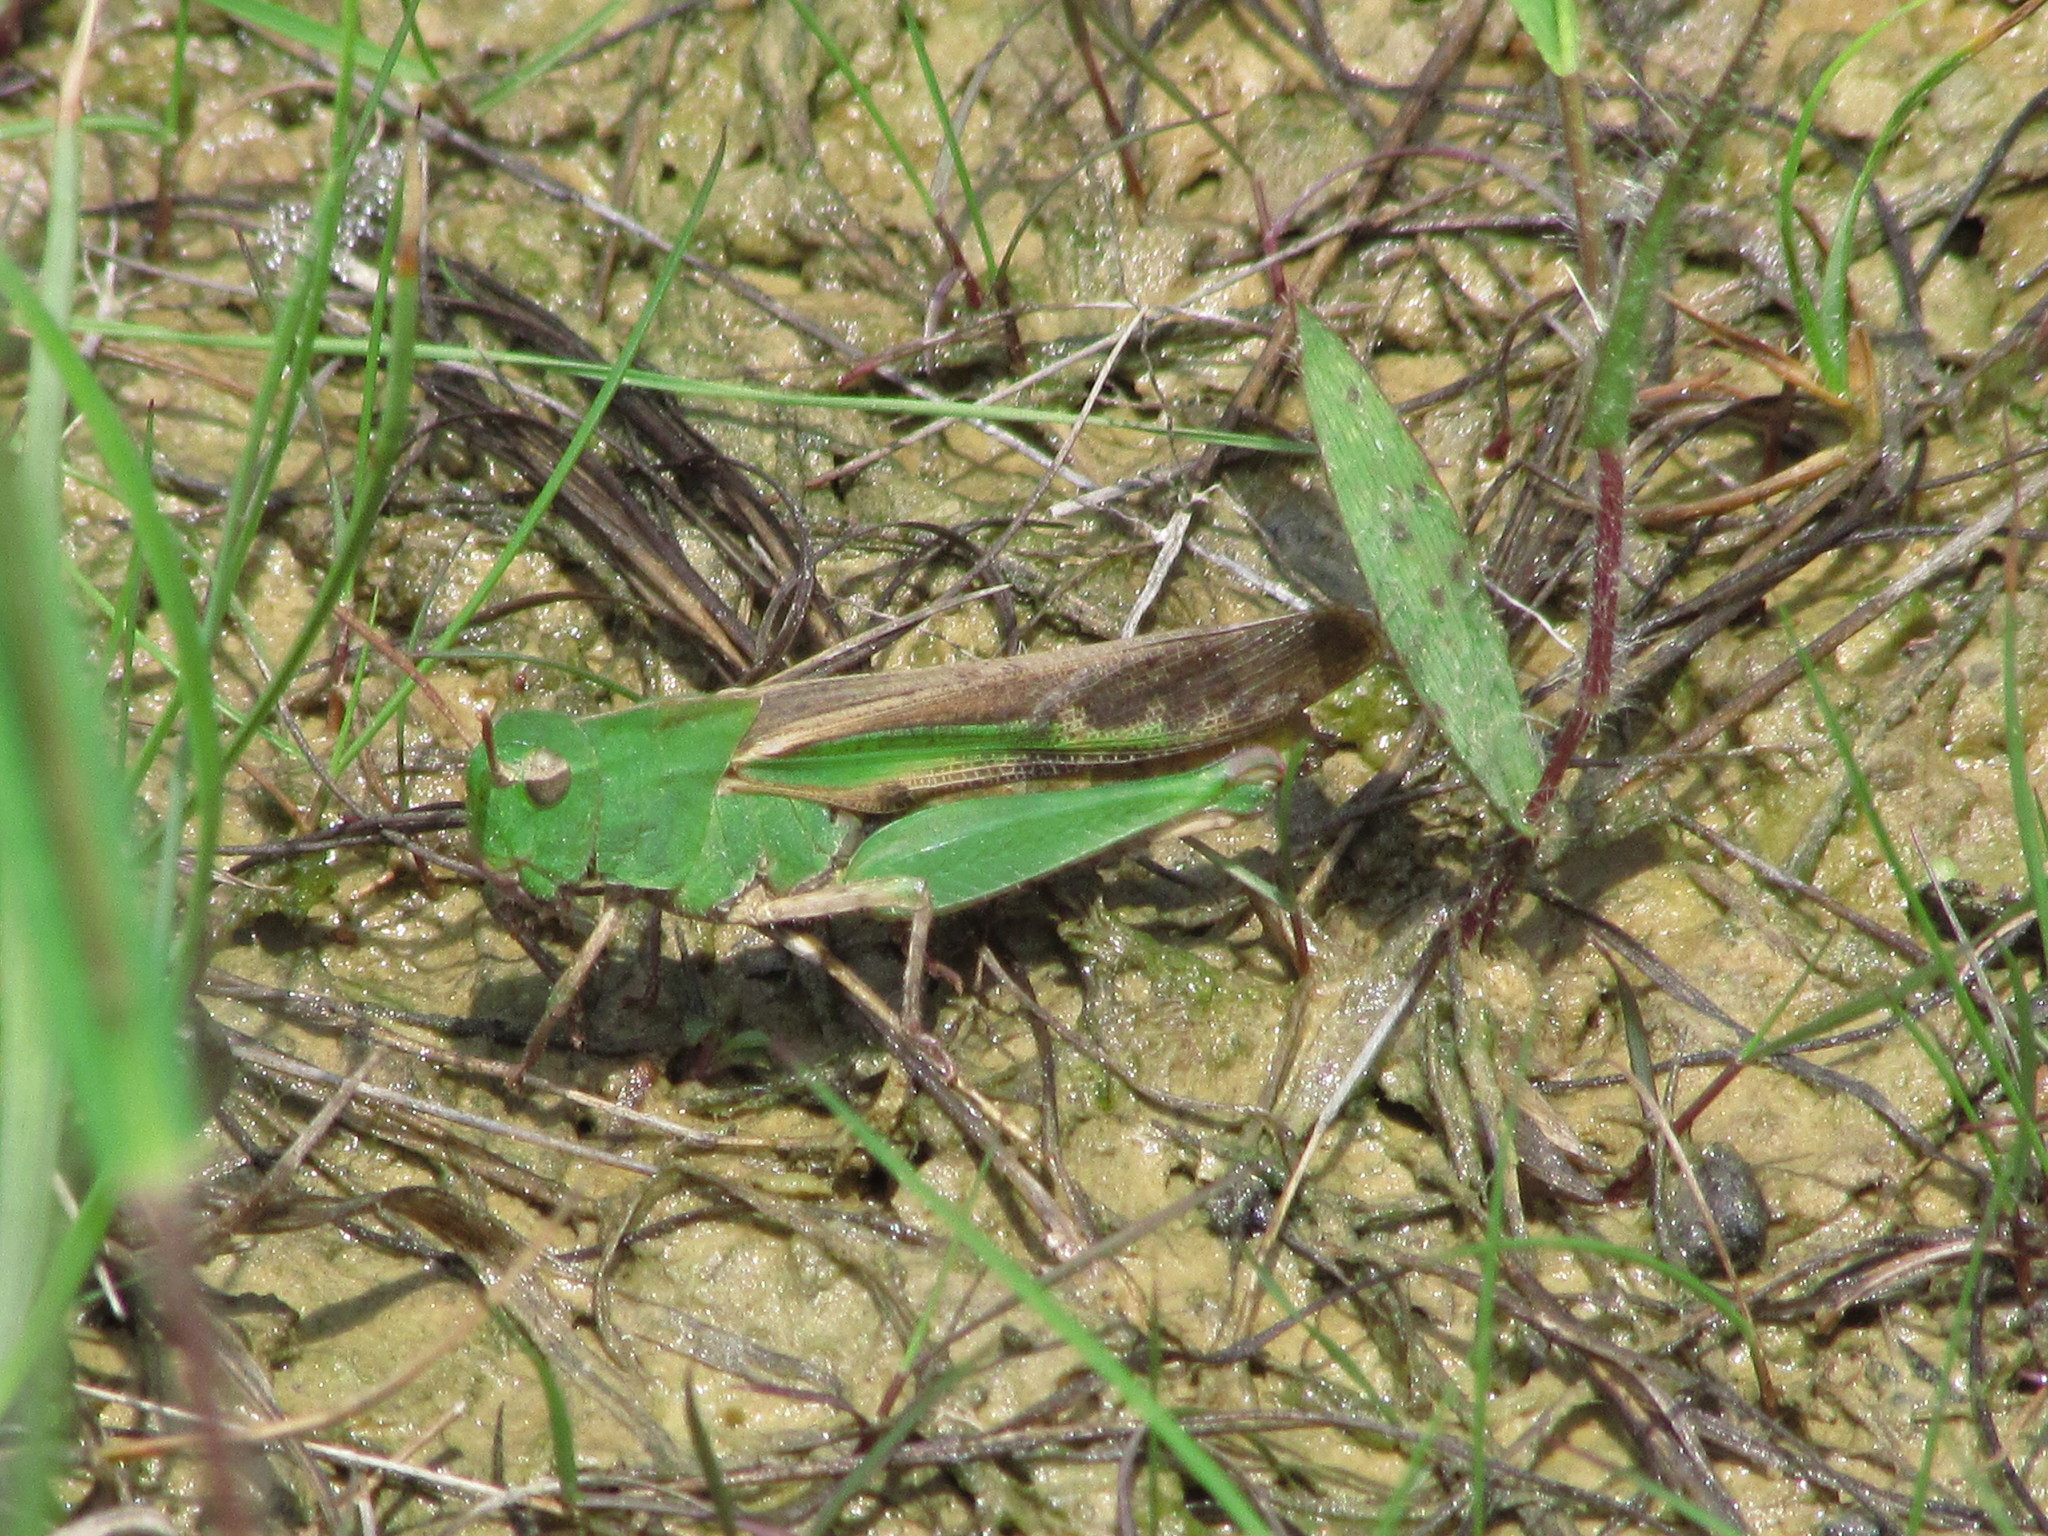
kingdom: Animalia
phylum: Arthropoda
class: Insecta
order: Orthoptera
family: Acrididae
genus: Chortophaga
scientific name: Chortophaga viridifasciata
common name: Green-striped grasshopper
